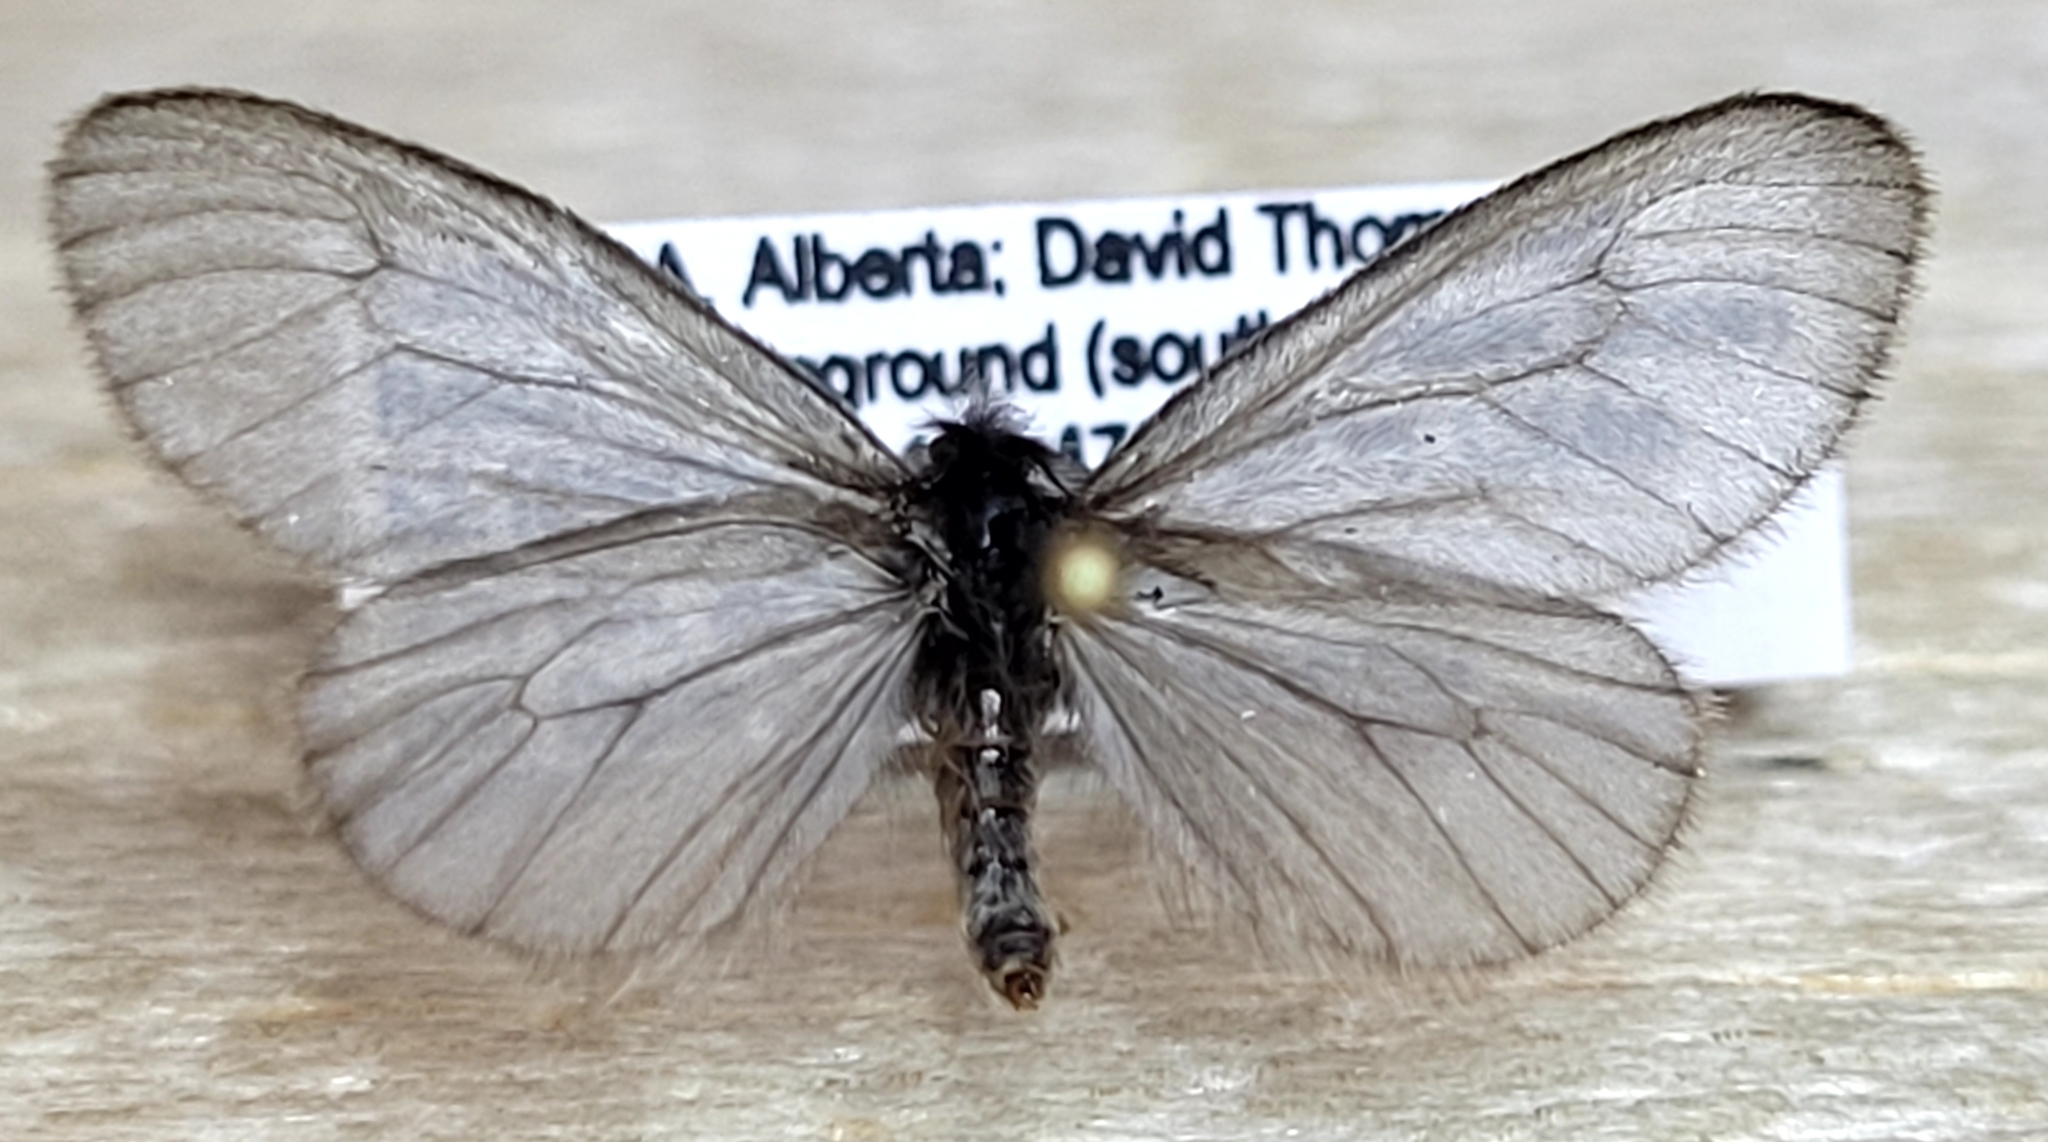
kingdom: Animalia
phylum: Arthropoda
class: Insecta
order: Lepidoptera
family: Psychidae
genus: Hyaloscotes
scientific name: Hyaloscotes pithopoera
